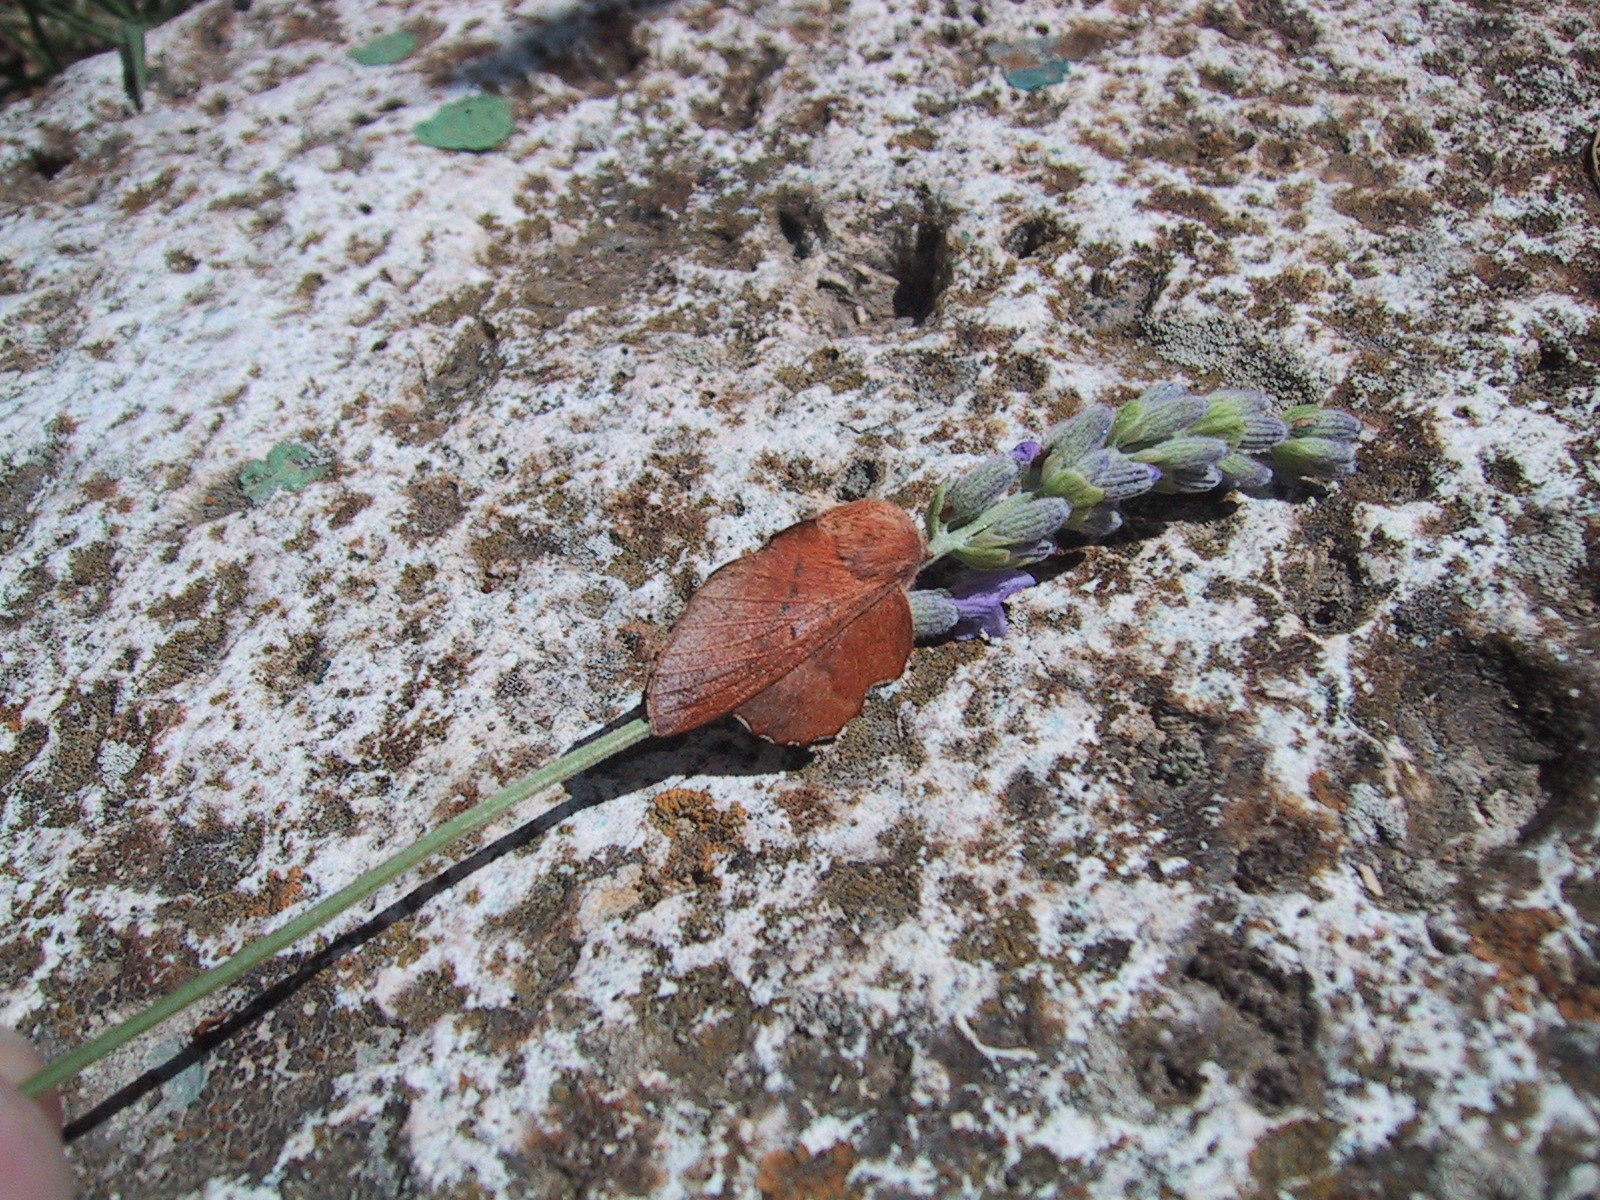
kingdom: Animalia
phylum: Arthropoda
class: Insecta
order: Lepidoptera
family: Lasiocampidae
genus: Phyllodesma
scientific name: Phyllodesma tremulifolia
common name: Aspen lappet
